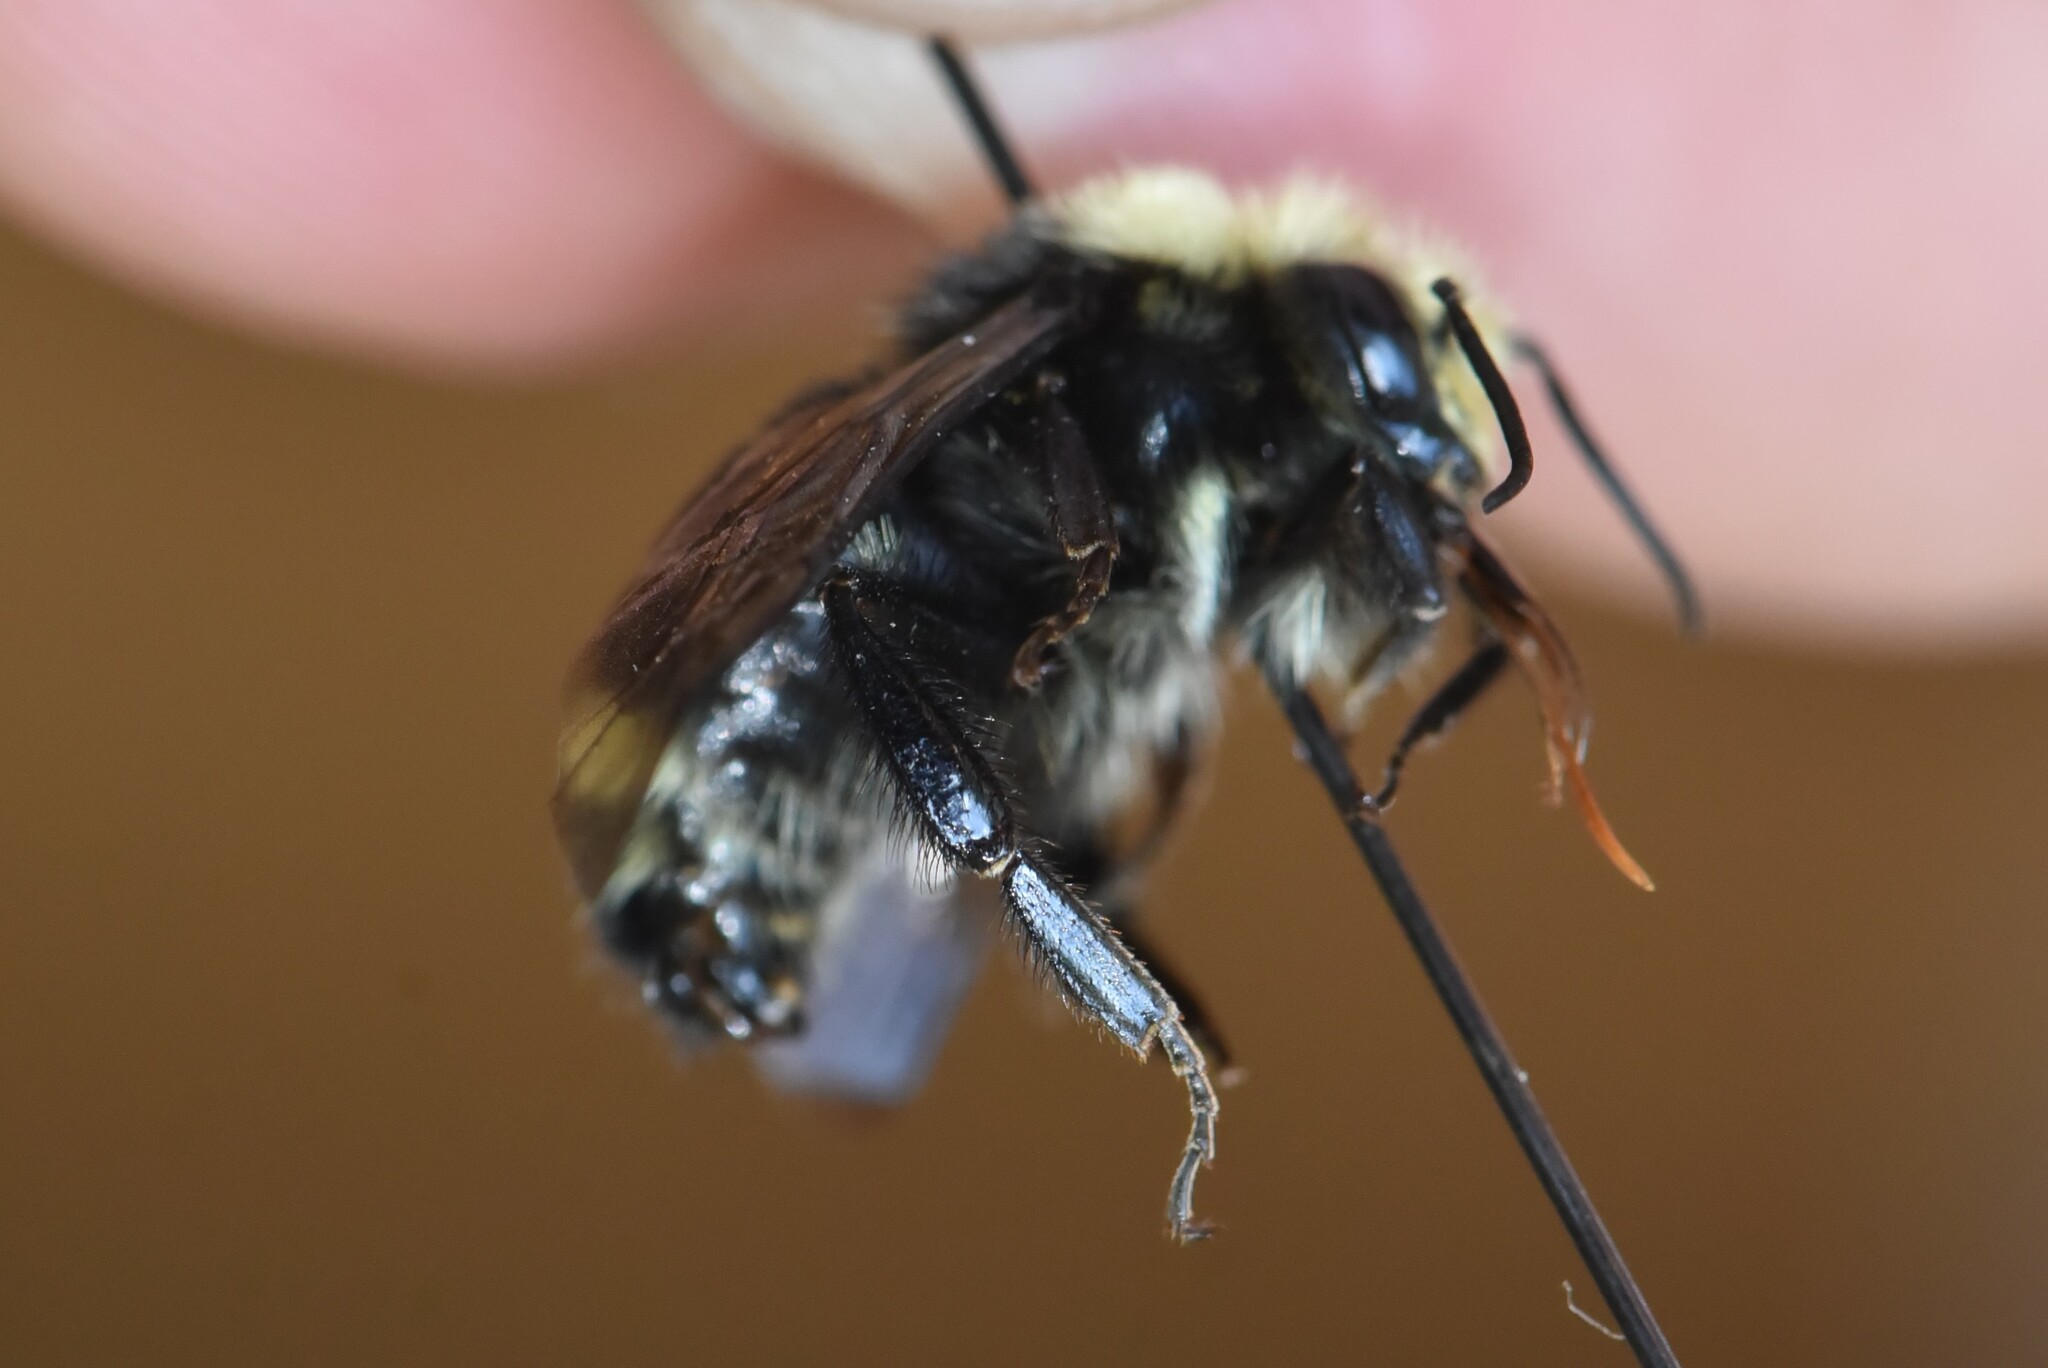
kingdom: Animalia
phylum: Arthropoda
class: Insecta
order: Hymenoptera
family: Apidae
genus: Bombus
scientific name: Bombus vosnesenskii
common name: Vosnesensky bumble bee
